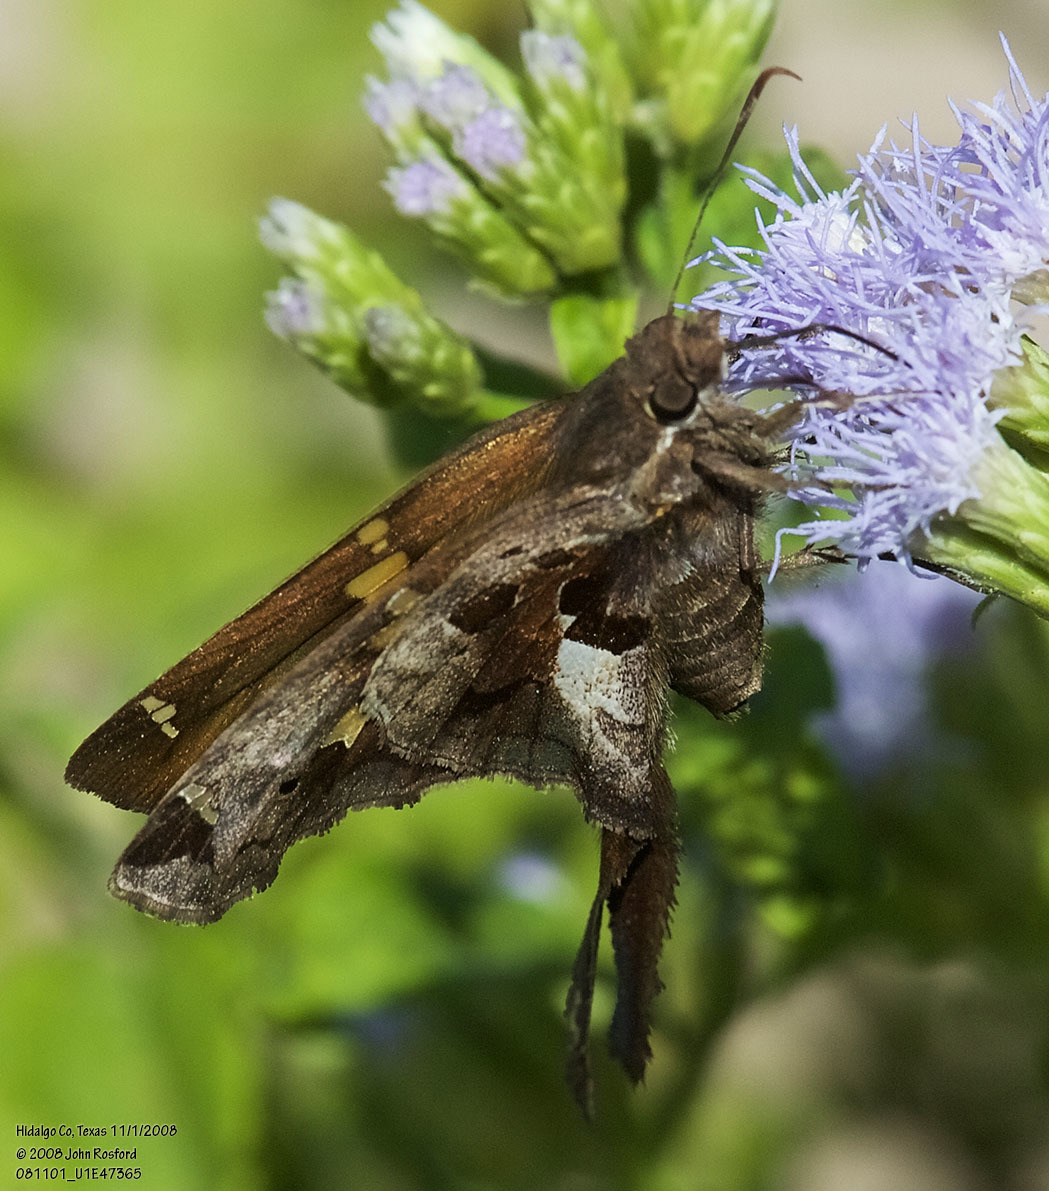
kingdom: Animalia
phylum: Arthropoda
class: Insecta
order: Lepidoptera
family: Hesperiidae
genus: Chioides
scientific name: Chioides zilpa
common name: Zilpa longtail
